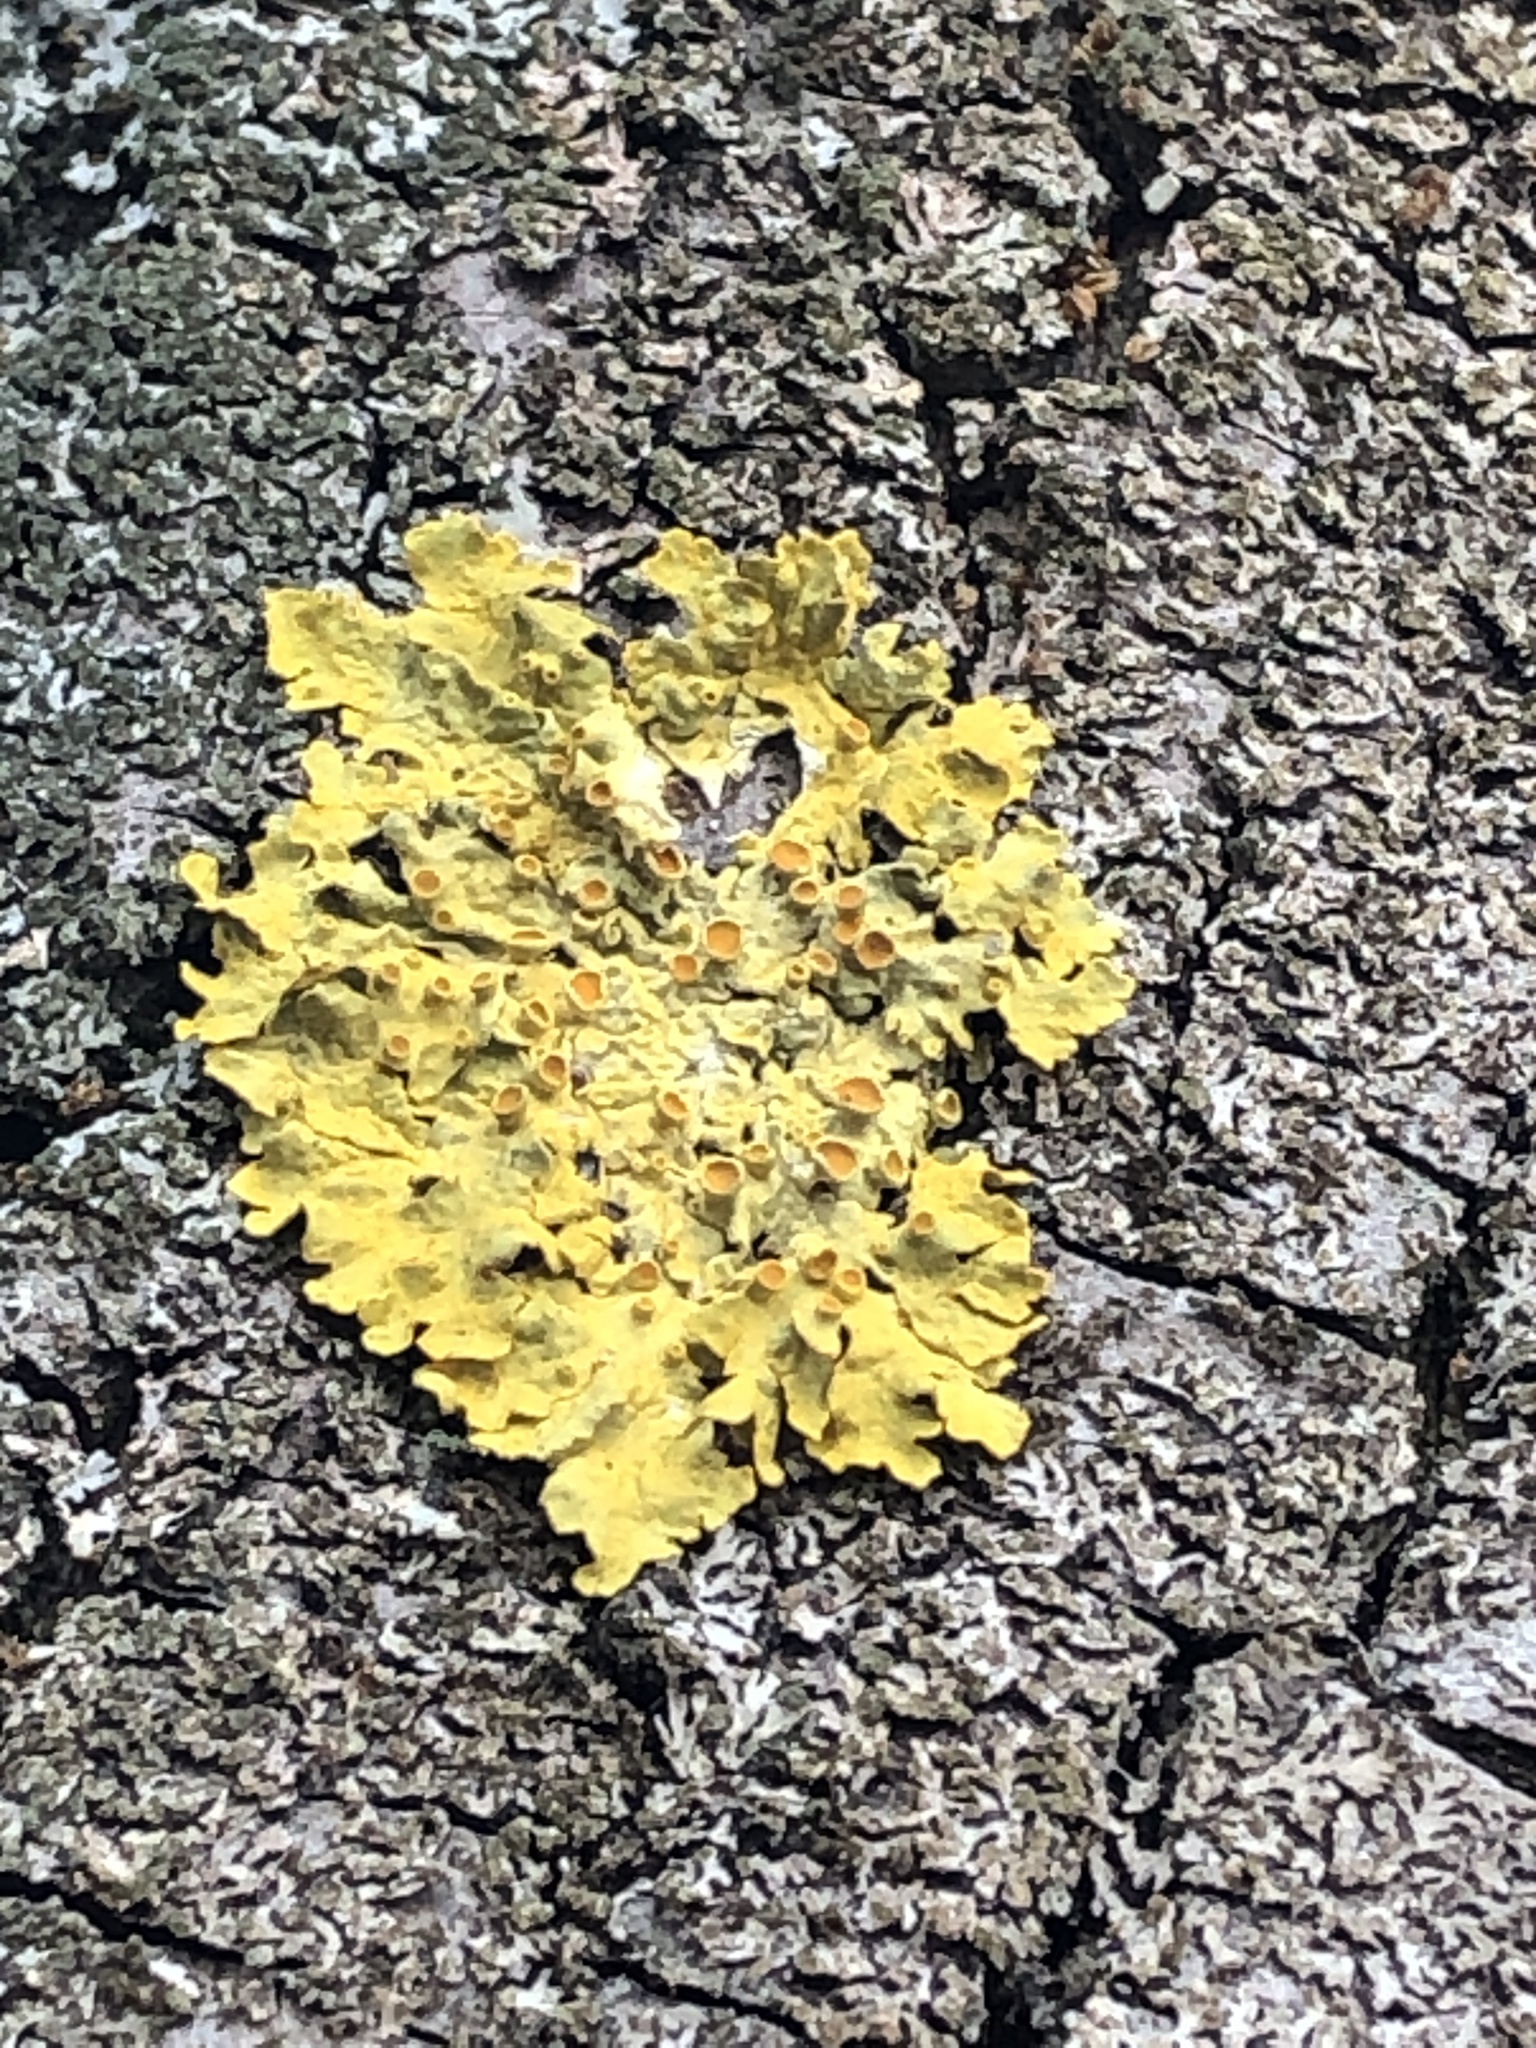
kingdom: Fungi
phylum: Ascomycota
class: Lecanoromycetes
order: Teloschistales
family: Teloschistaceae
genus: Xanthoria
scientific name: Xanthoria parietina
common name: Common orange lichen
